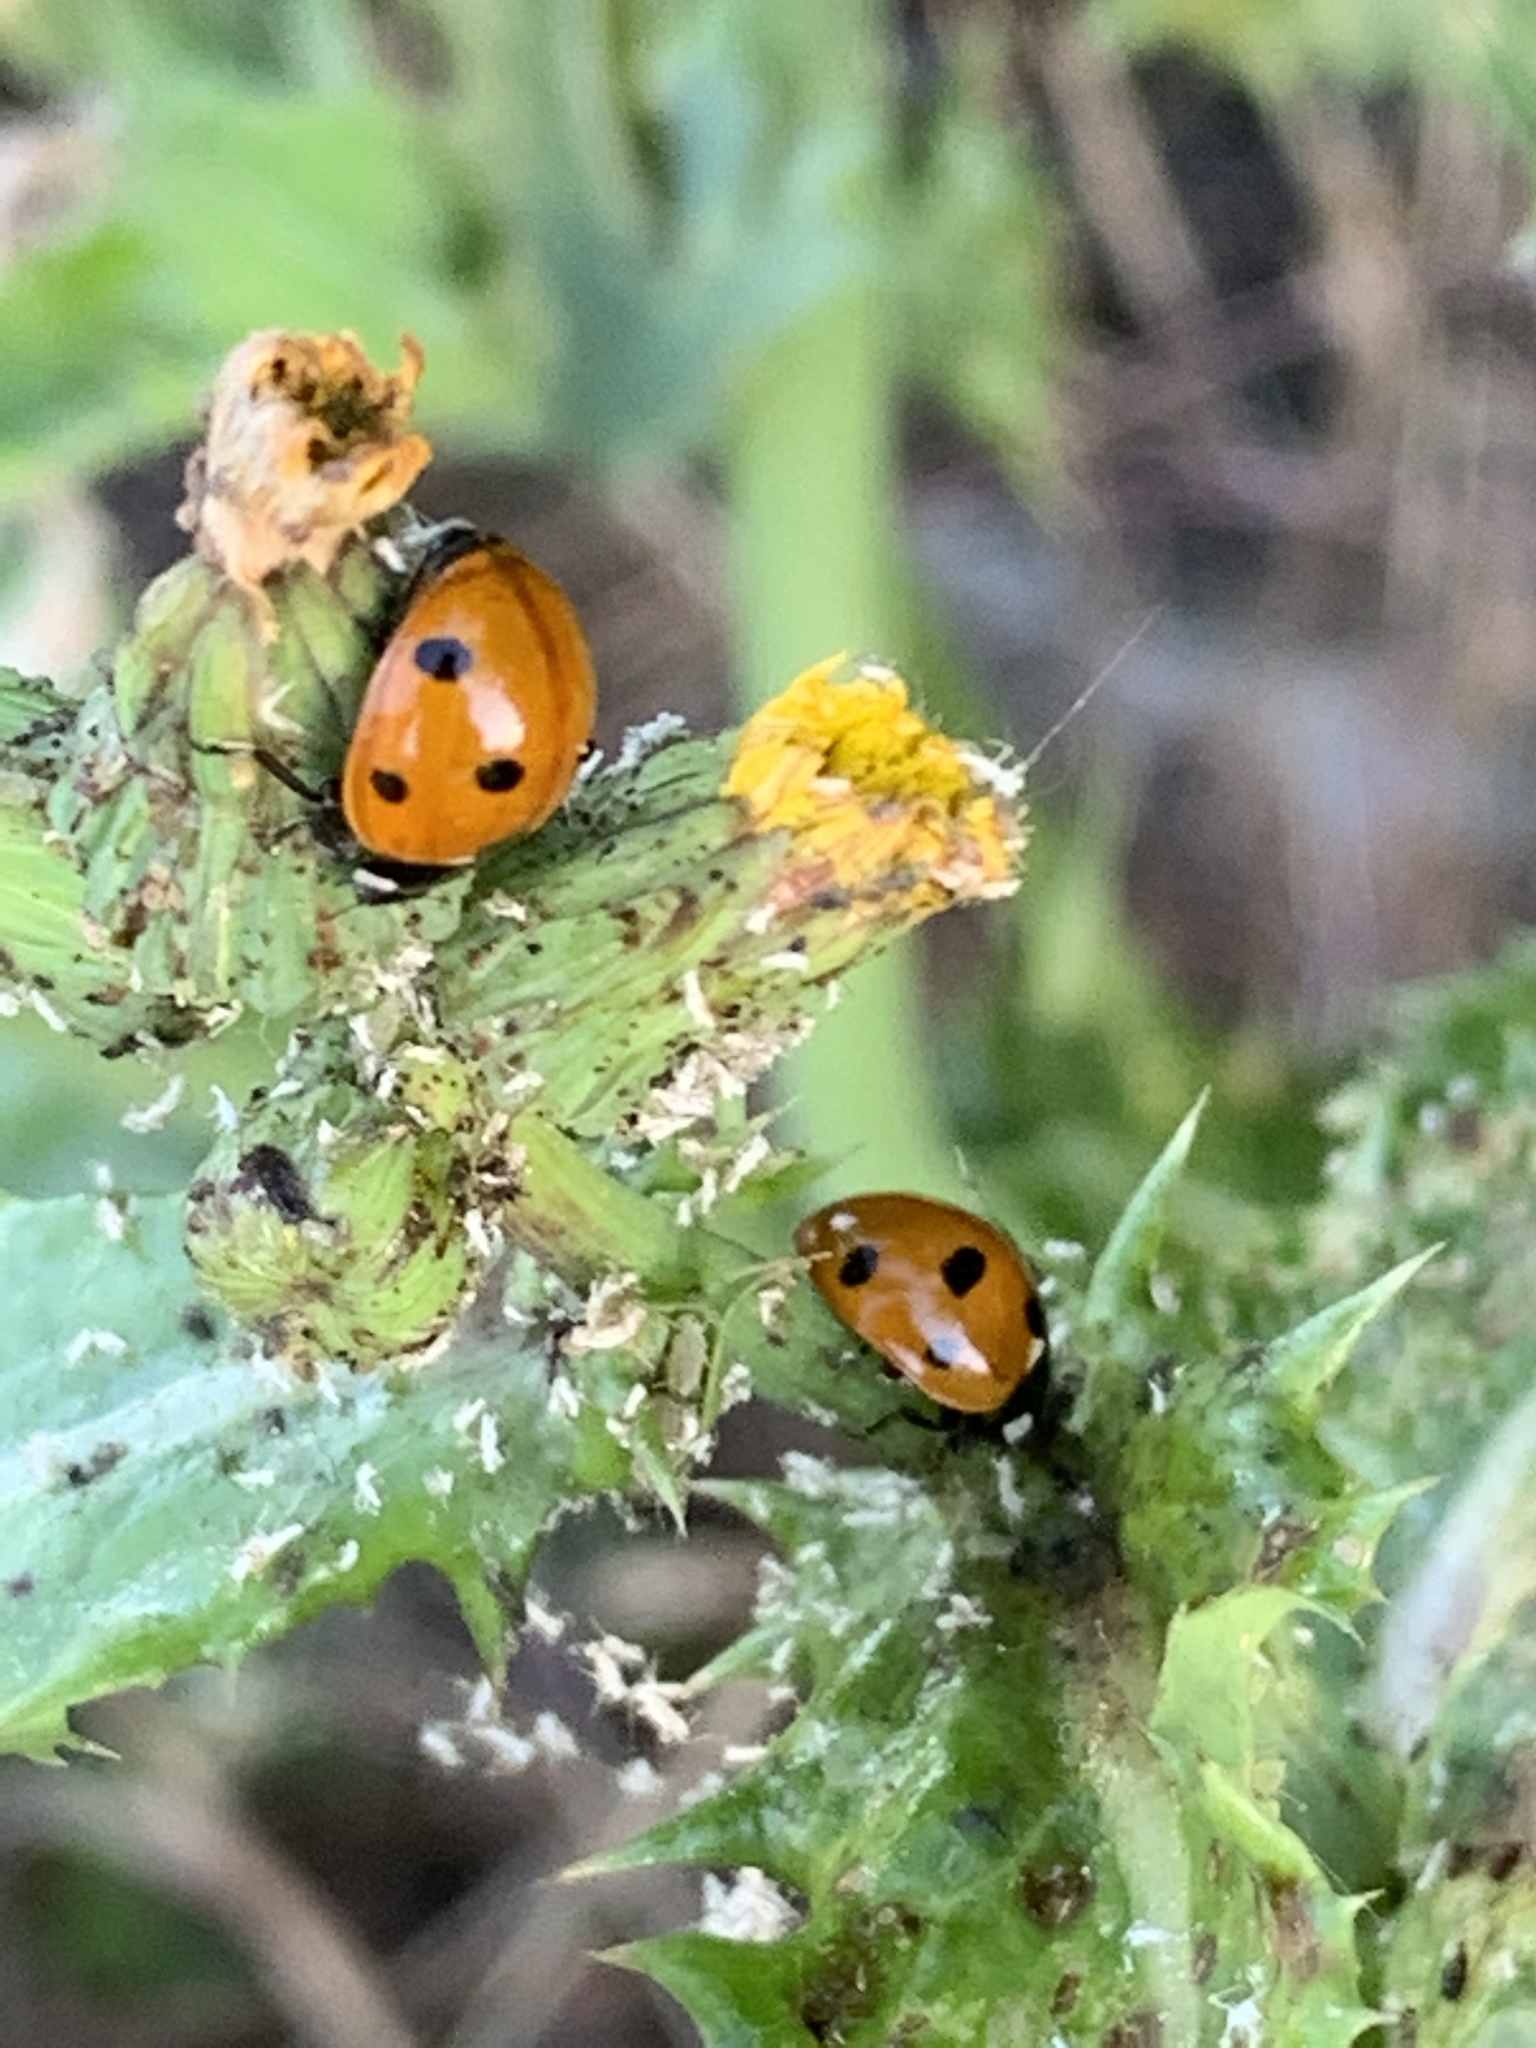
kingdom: Animalia
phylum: Arthropoda
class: Insecta
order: Coleoptera
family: Coccinellidae
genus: Coccinella
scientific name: Coccinella septempunctata
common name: Sevenspotted lady beetle
